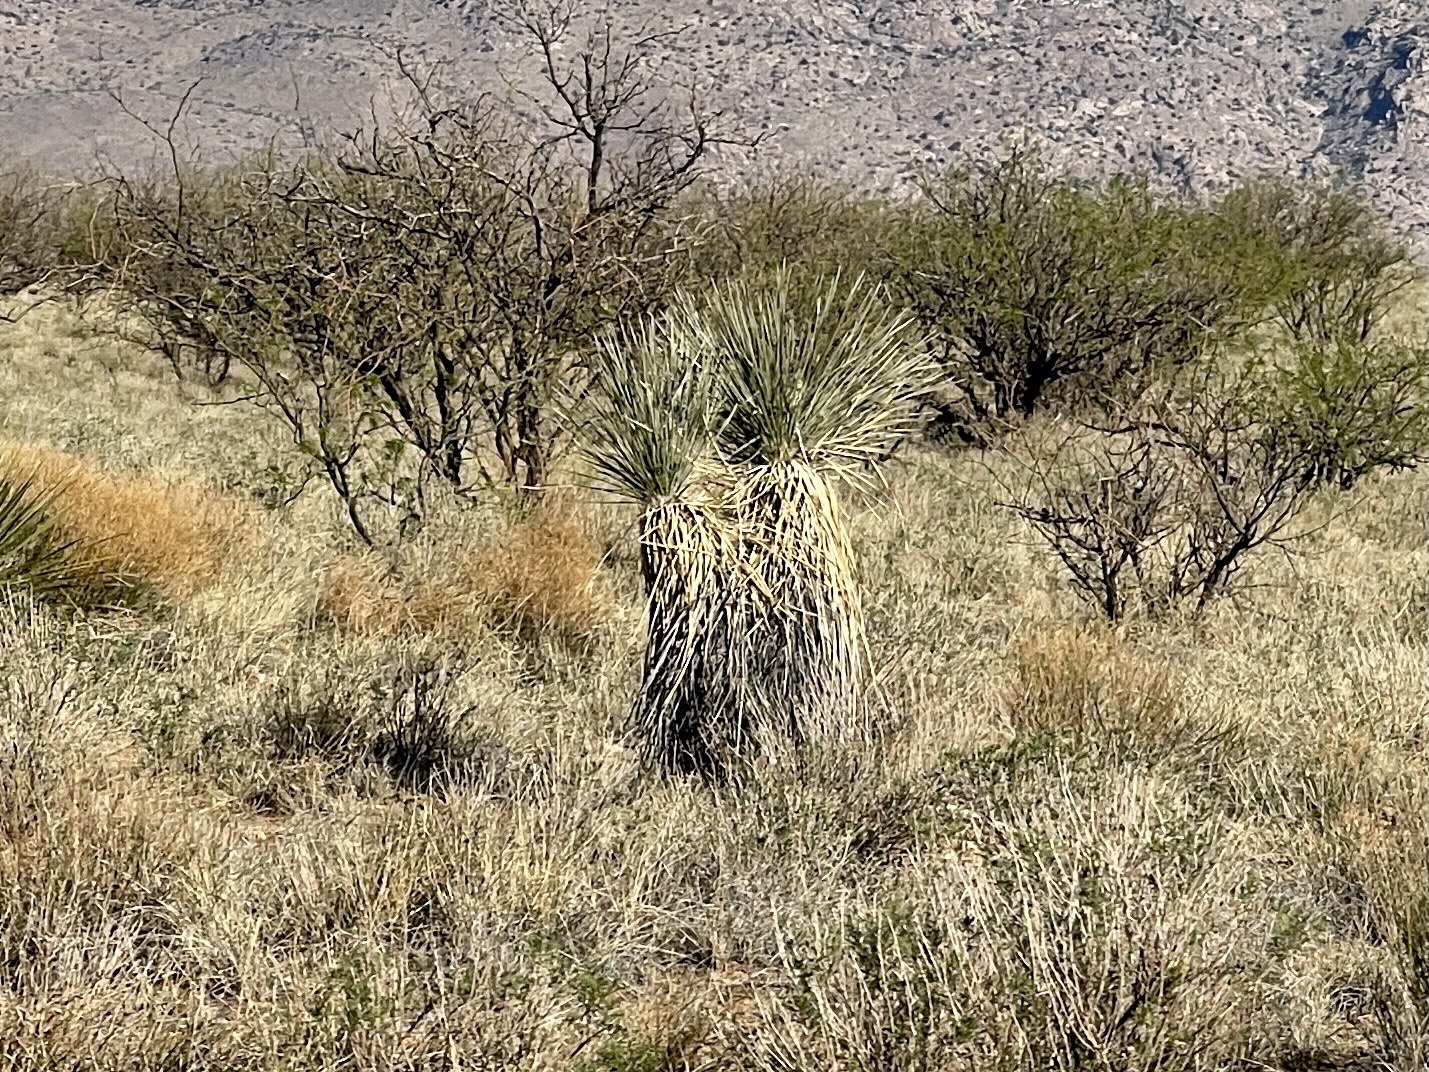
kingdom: Plantae
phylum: Tracheophyta
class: Liliopsida
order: Asparagales
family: Asparagaceae
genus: Yucca
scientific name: Yucca elata
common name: Palmella
